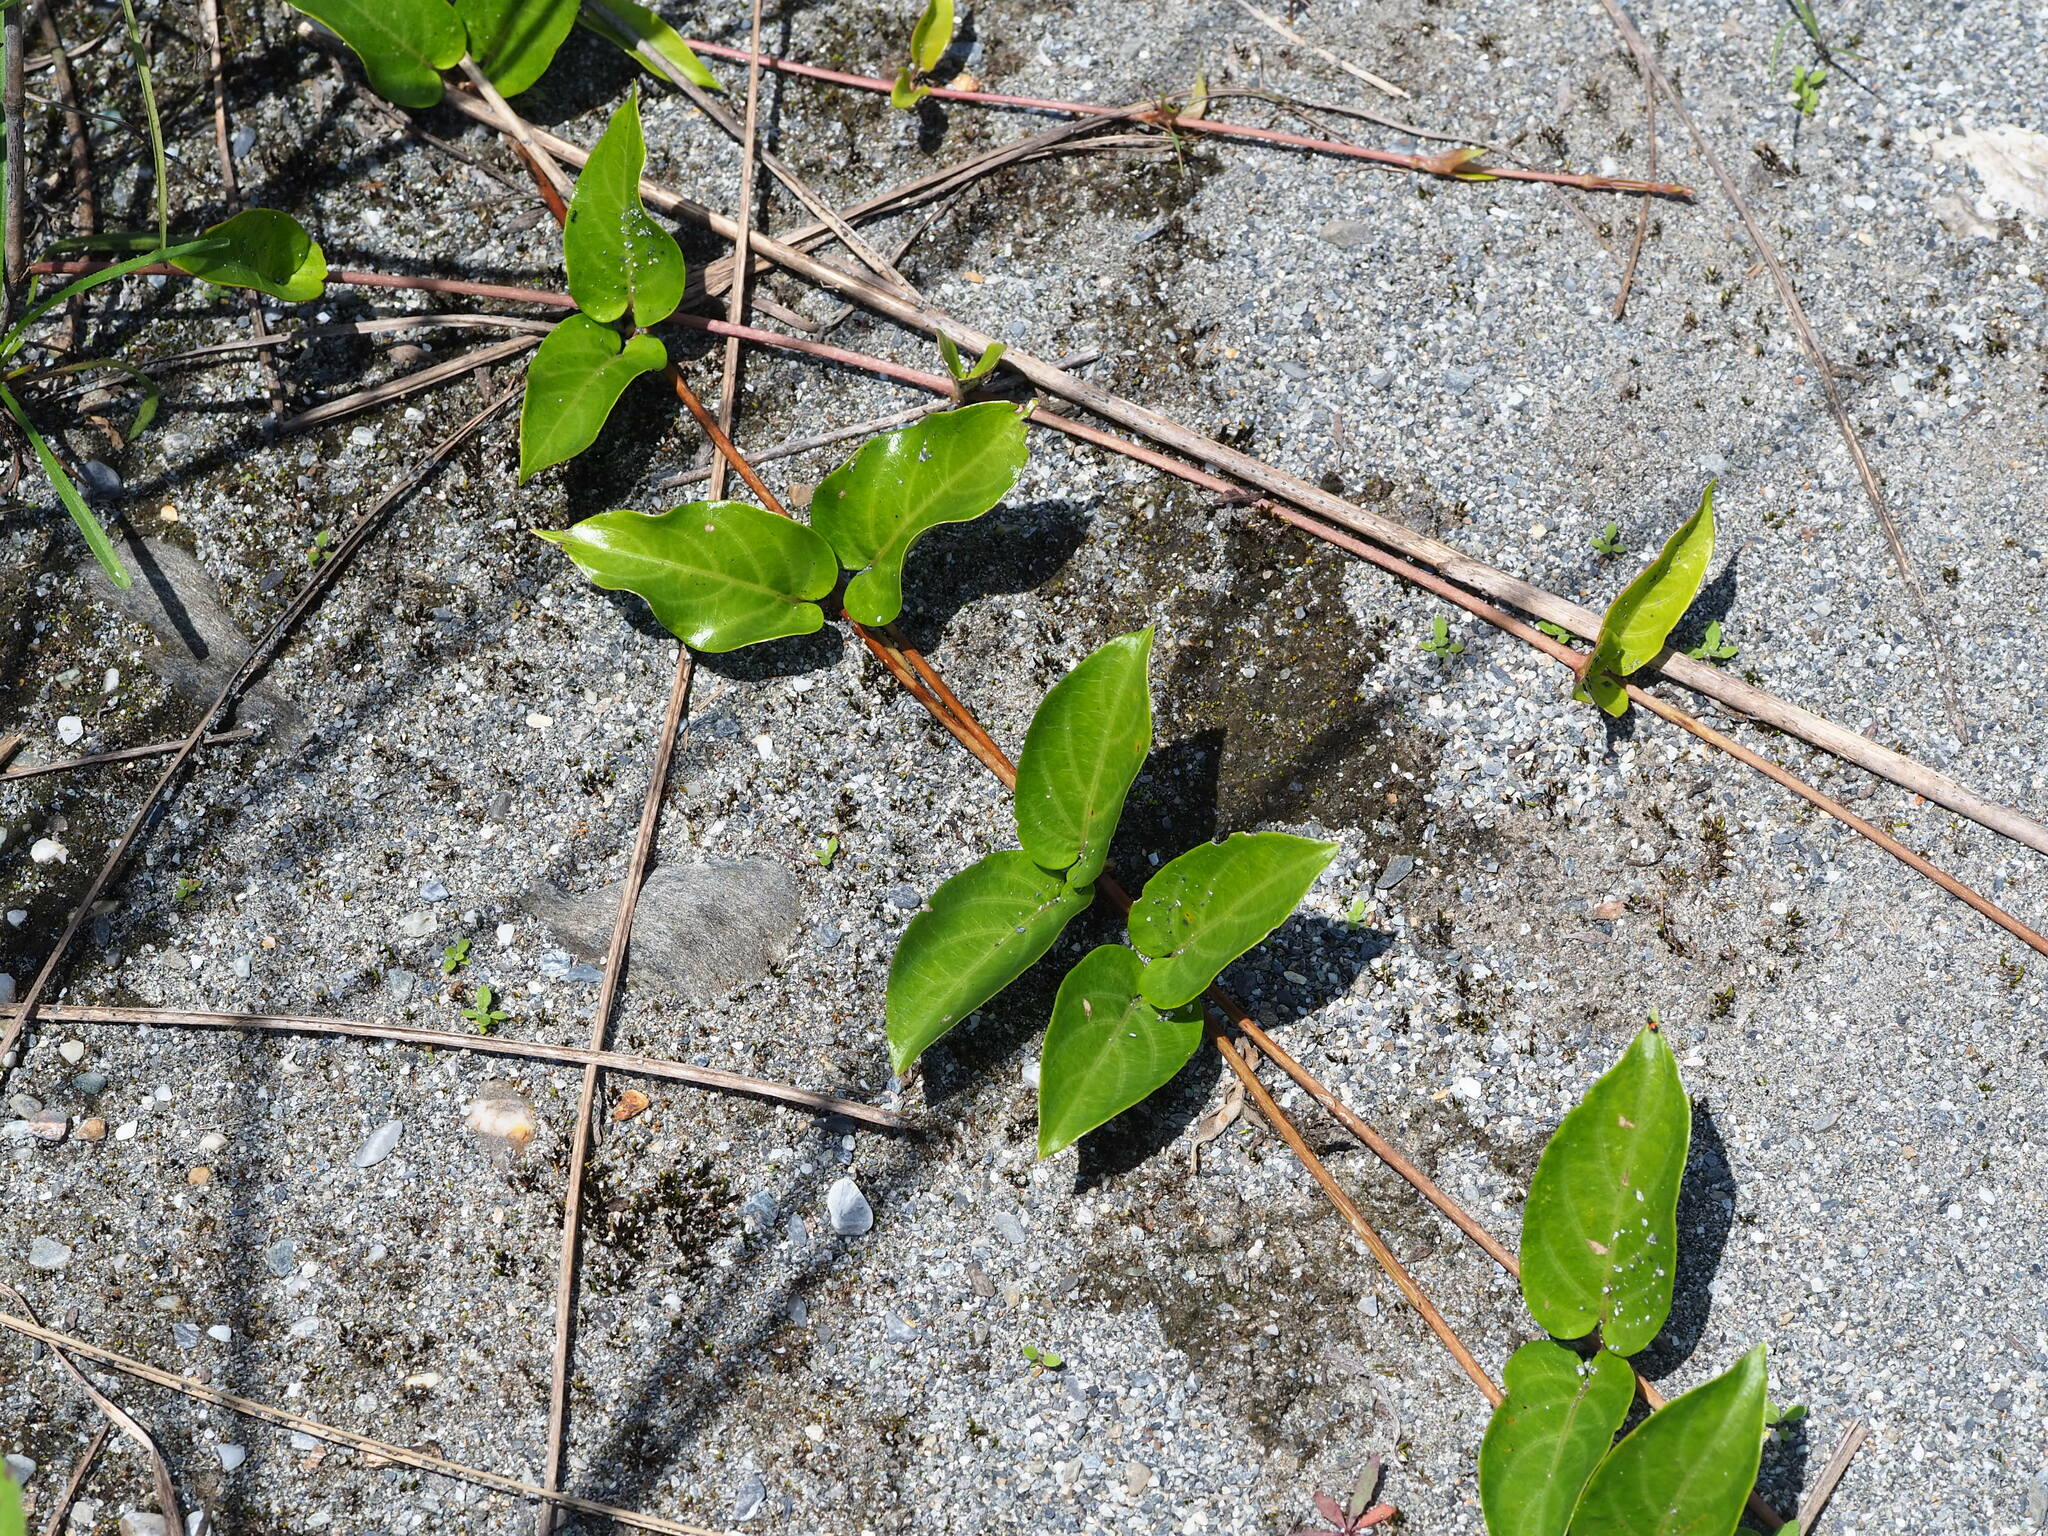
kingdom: Plantae
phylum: Tracheophyta
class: Magnoliopsida
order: Gentianales
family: Rubiaceae
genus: Paederia
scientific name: Paederia foetida
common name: Stinkvine
